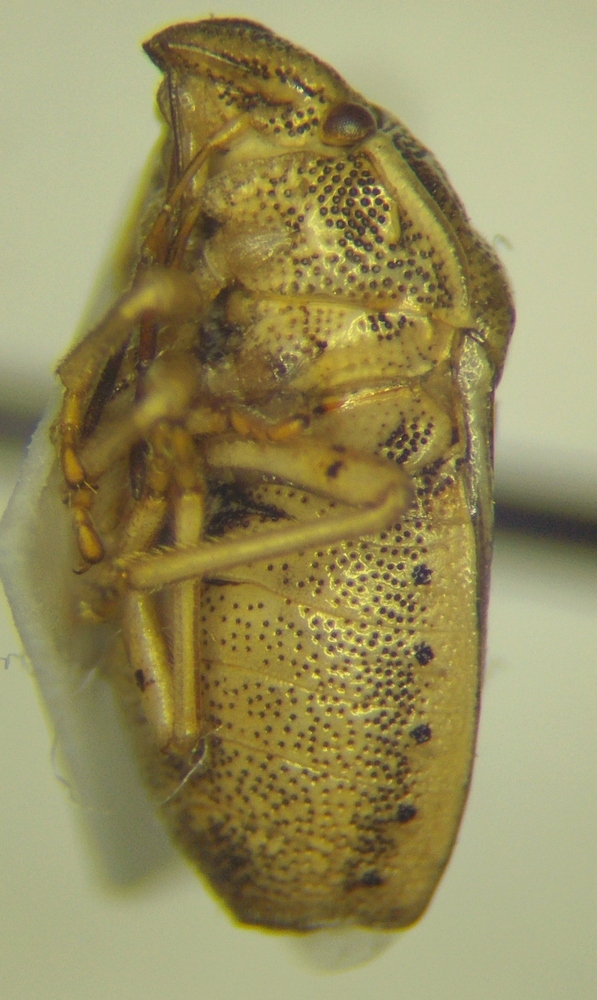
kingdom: Animalia
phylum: Arthropoda
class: Insecta
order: Hemiptera
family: Pentatomidae
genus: Neottiglossa
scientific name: Neottiglossa leporina
